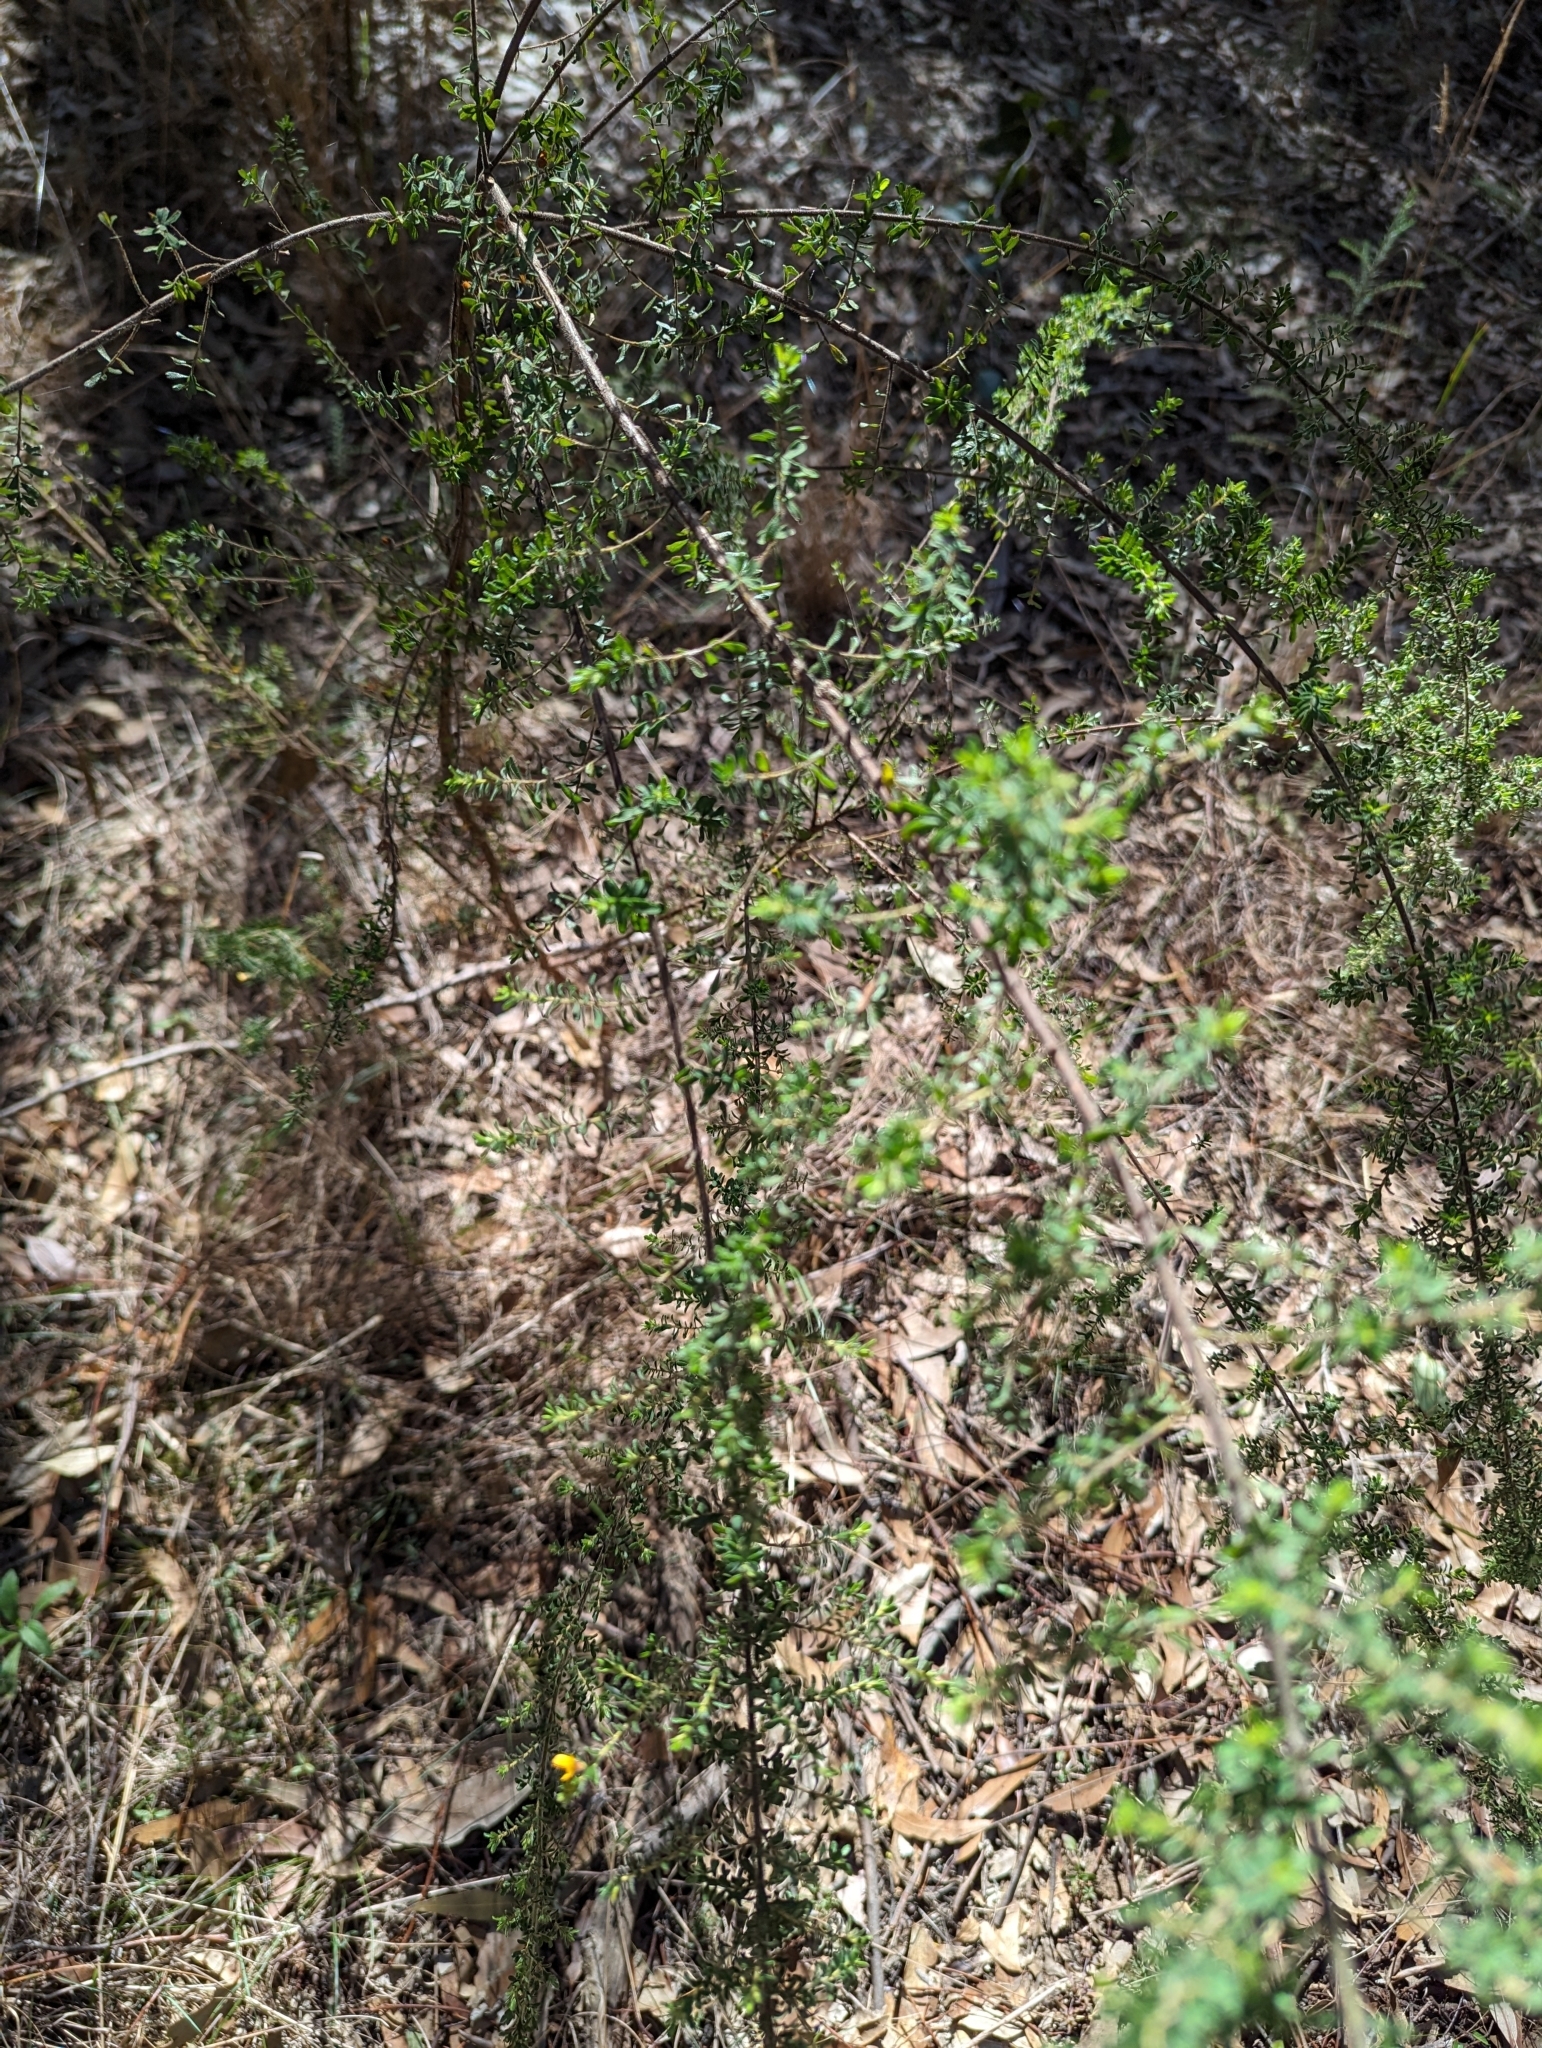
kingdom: Plantae
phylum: Tracheophyta
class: Magnoliopsida
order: Fabales
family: Fabaceae
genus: Pultenaea
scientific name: Pultenaea villosa
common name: Bronze bush-pea
